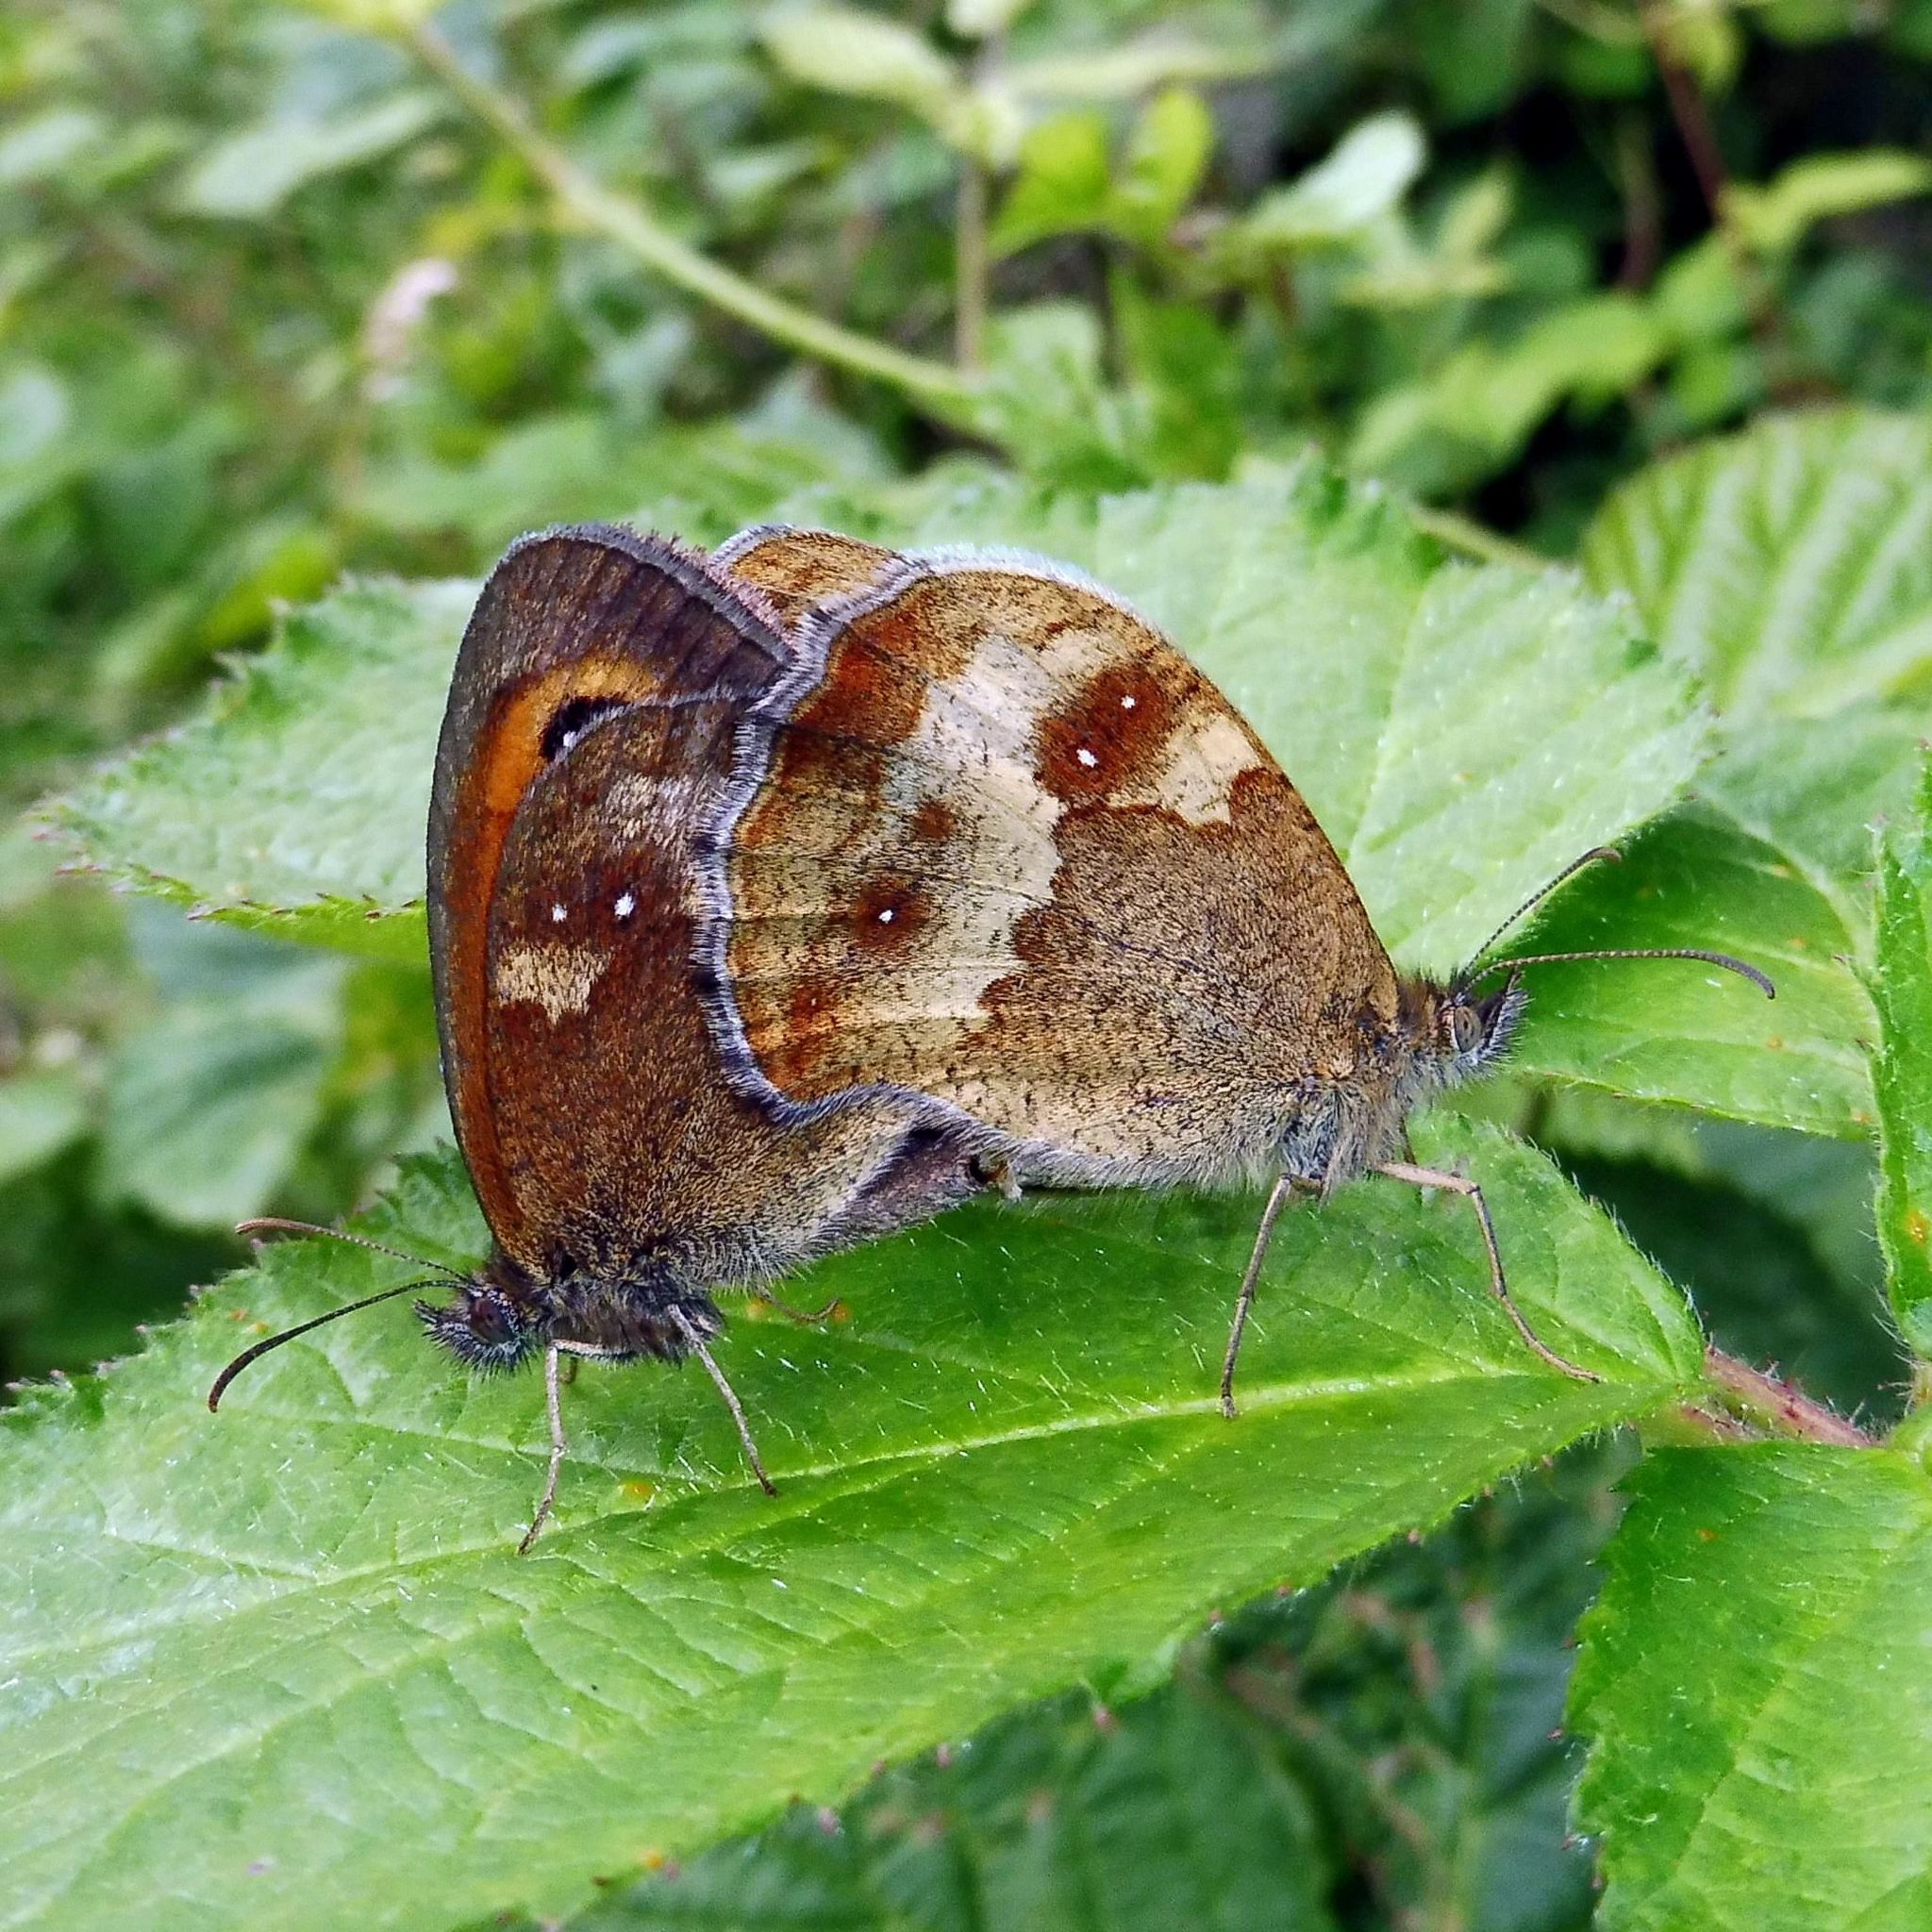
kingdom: Animalia
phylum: Arthropoda
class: Insecta
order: Lepidoptera
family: Nymphalidae
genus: Pyronia
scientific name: Pyronia tithonus
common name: Gatekeeper
